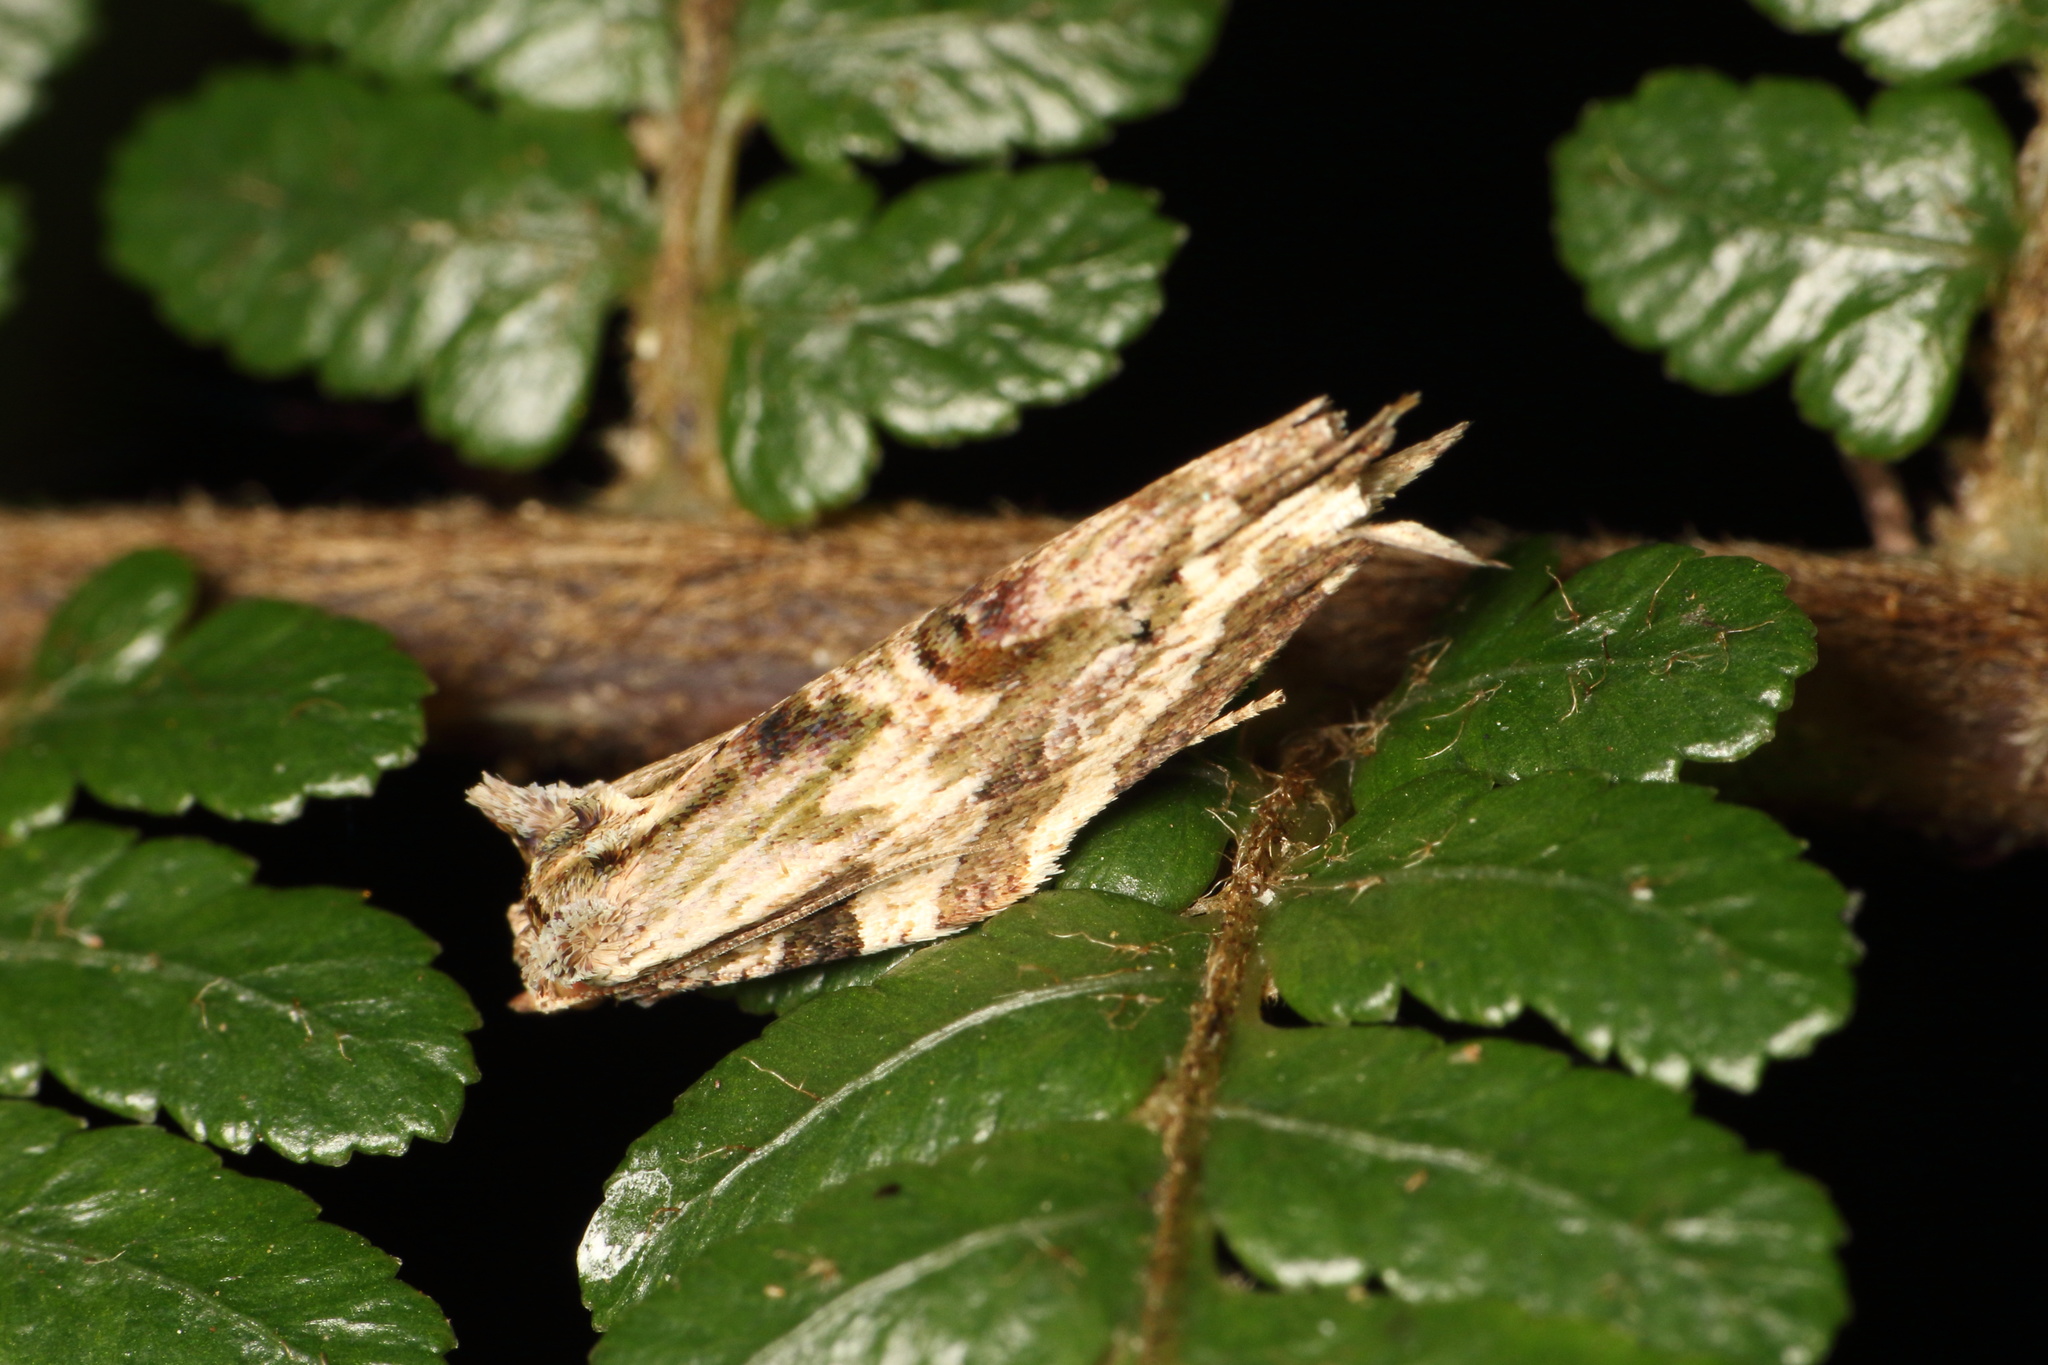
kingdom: Animalia
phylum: Arthropoda
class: Insecta
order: Lepidoptera
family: Tortricidae
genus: Epalxiphora
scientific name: Epalxiphora axenana
